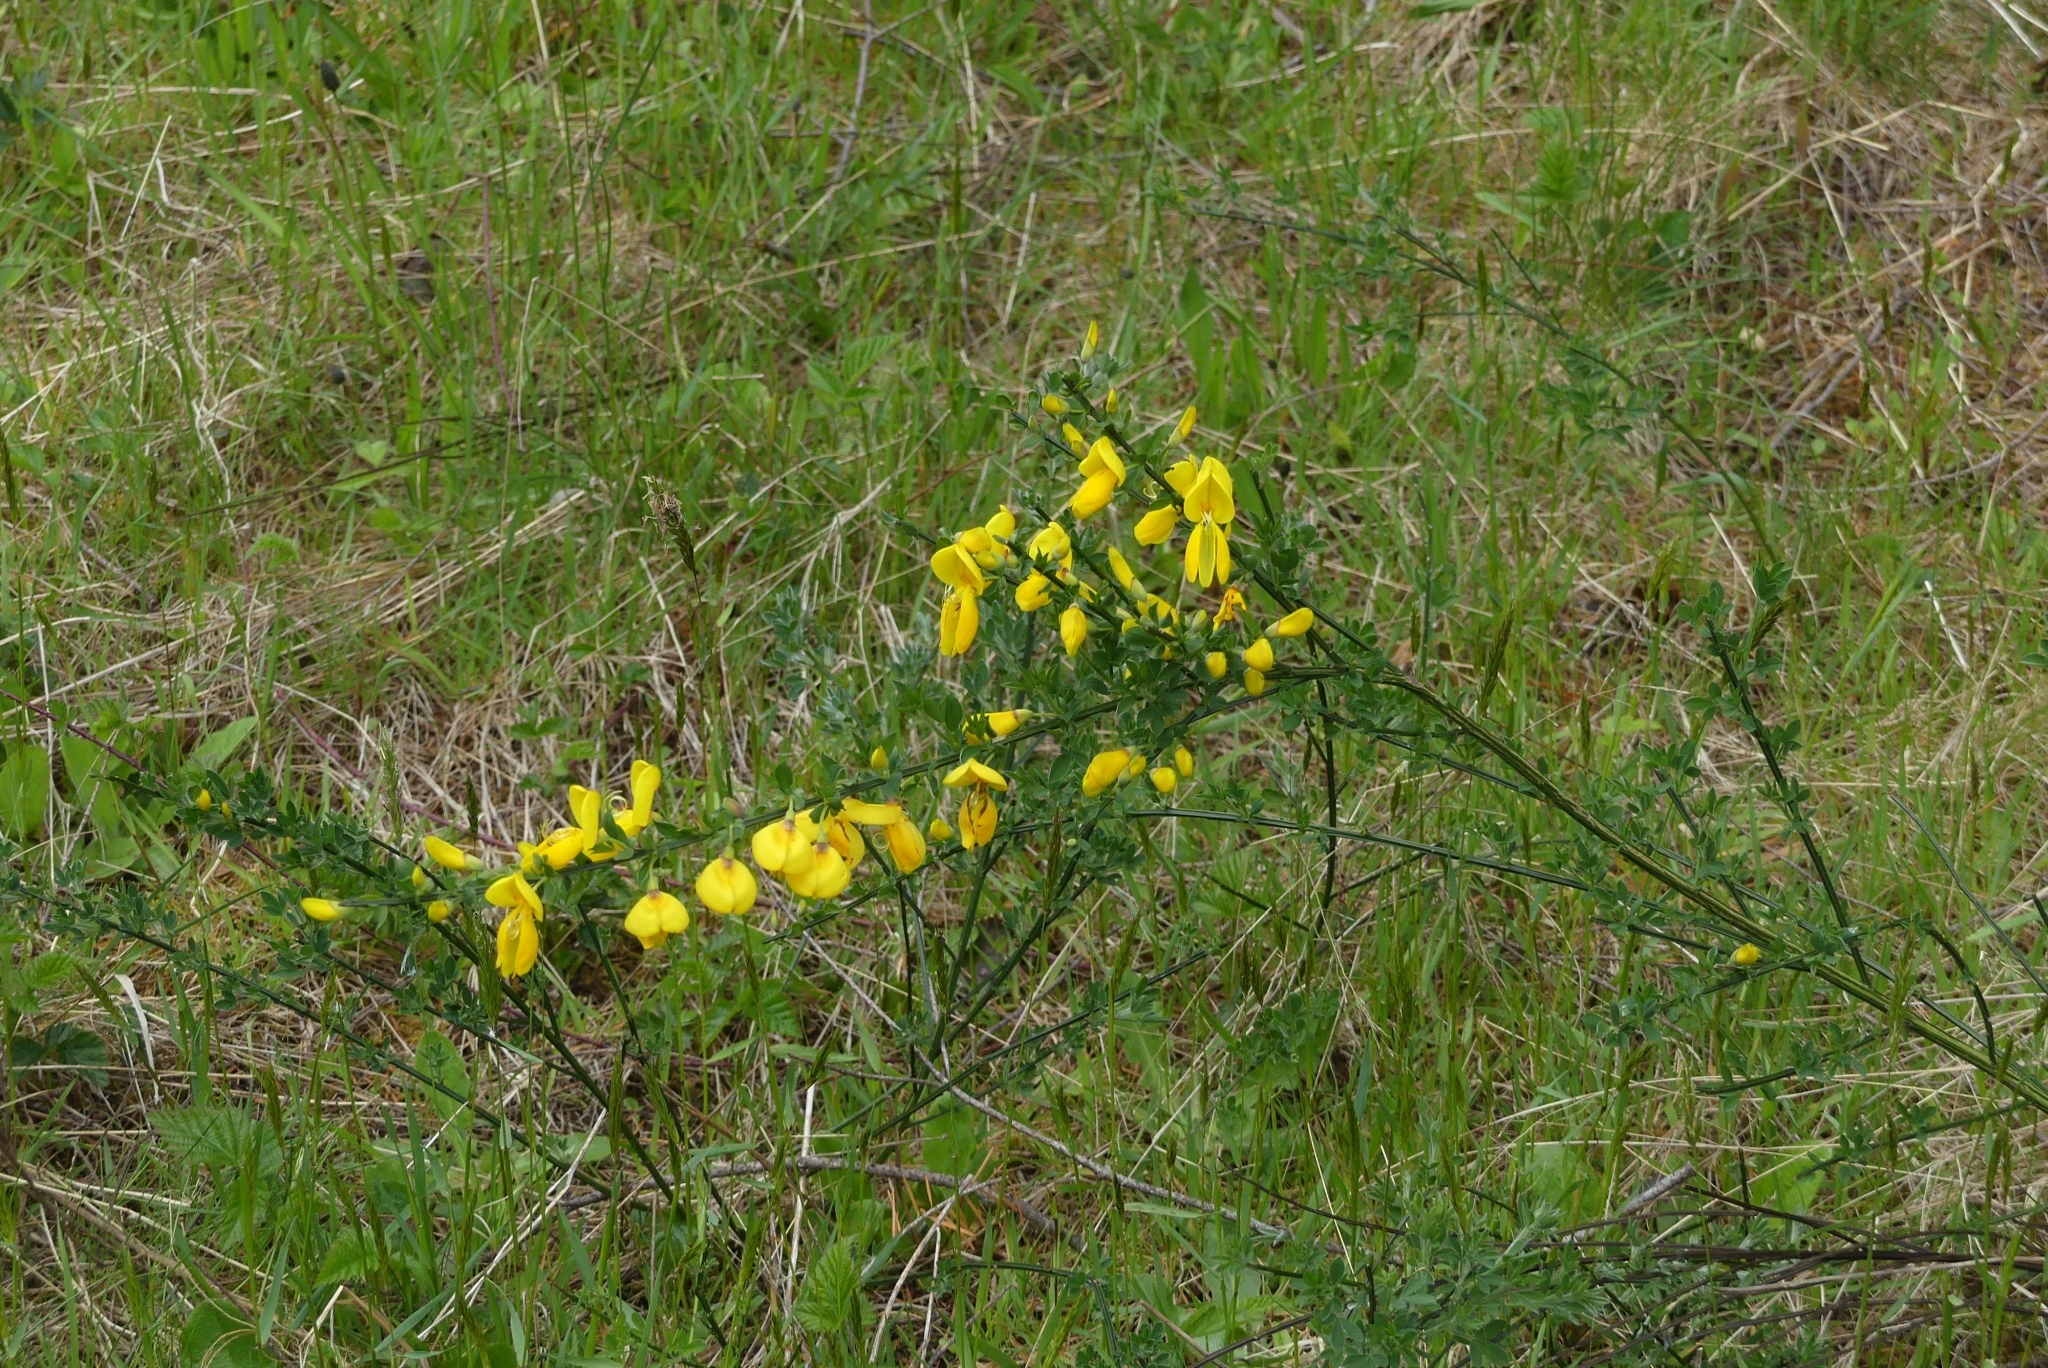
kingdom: Plantae
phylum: Tracheophyta
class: Magnoliopsida
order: Fabales
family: Fabaceae
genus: Cytisus
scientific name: Cytisus scoparius
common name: Scotch broom
